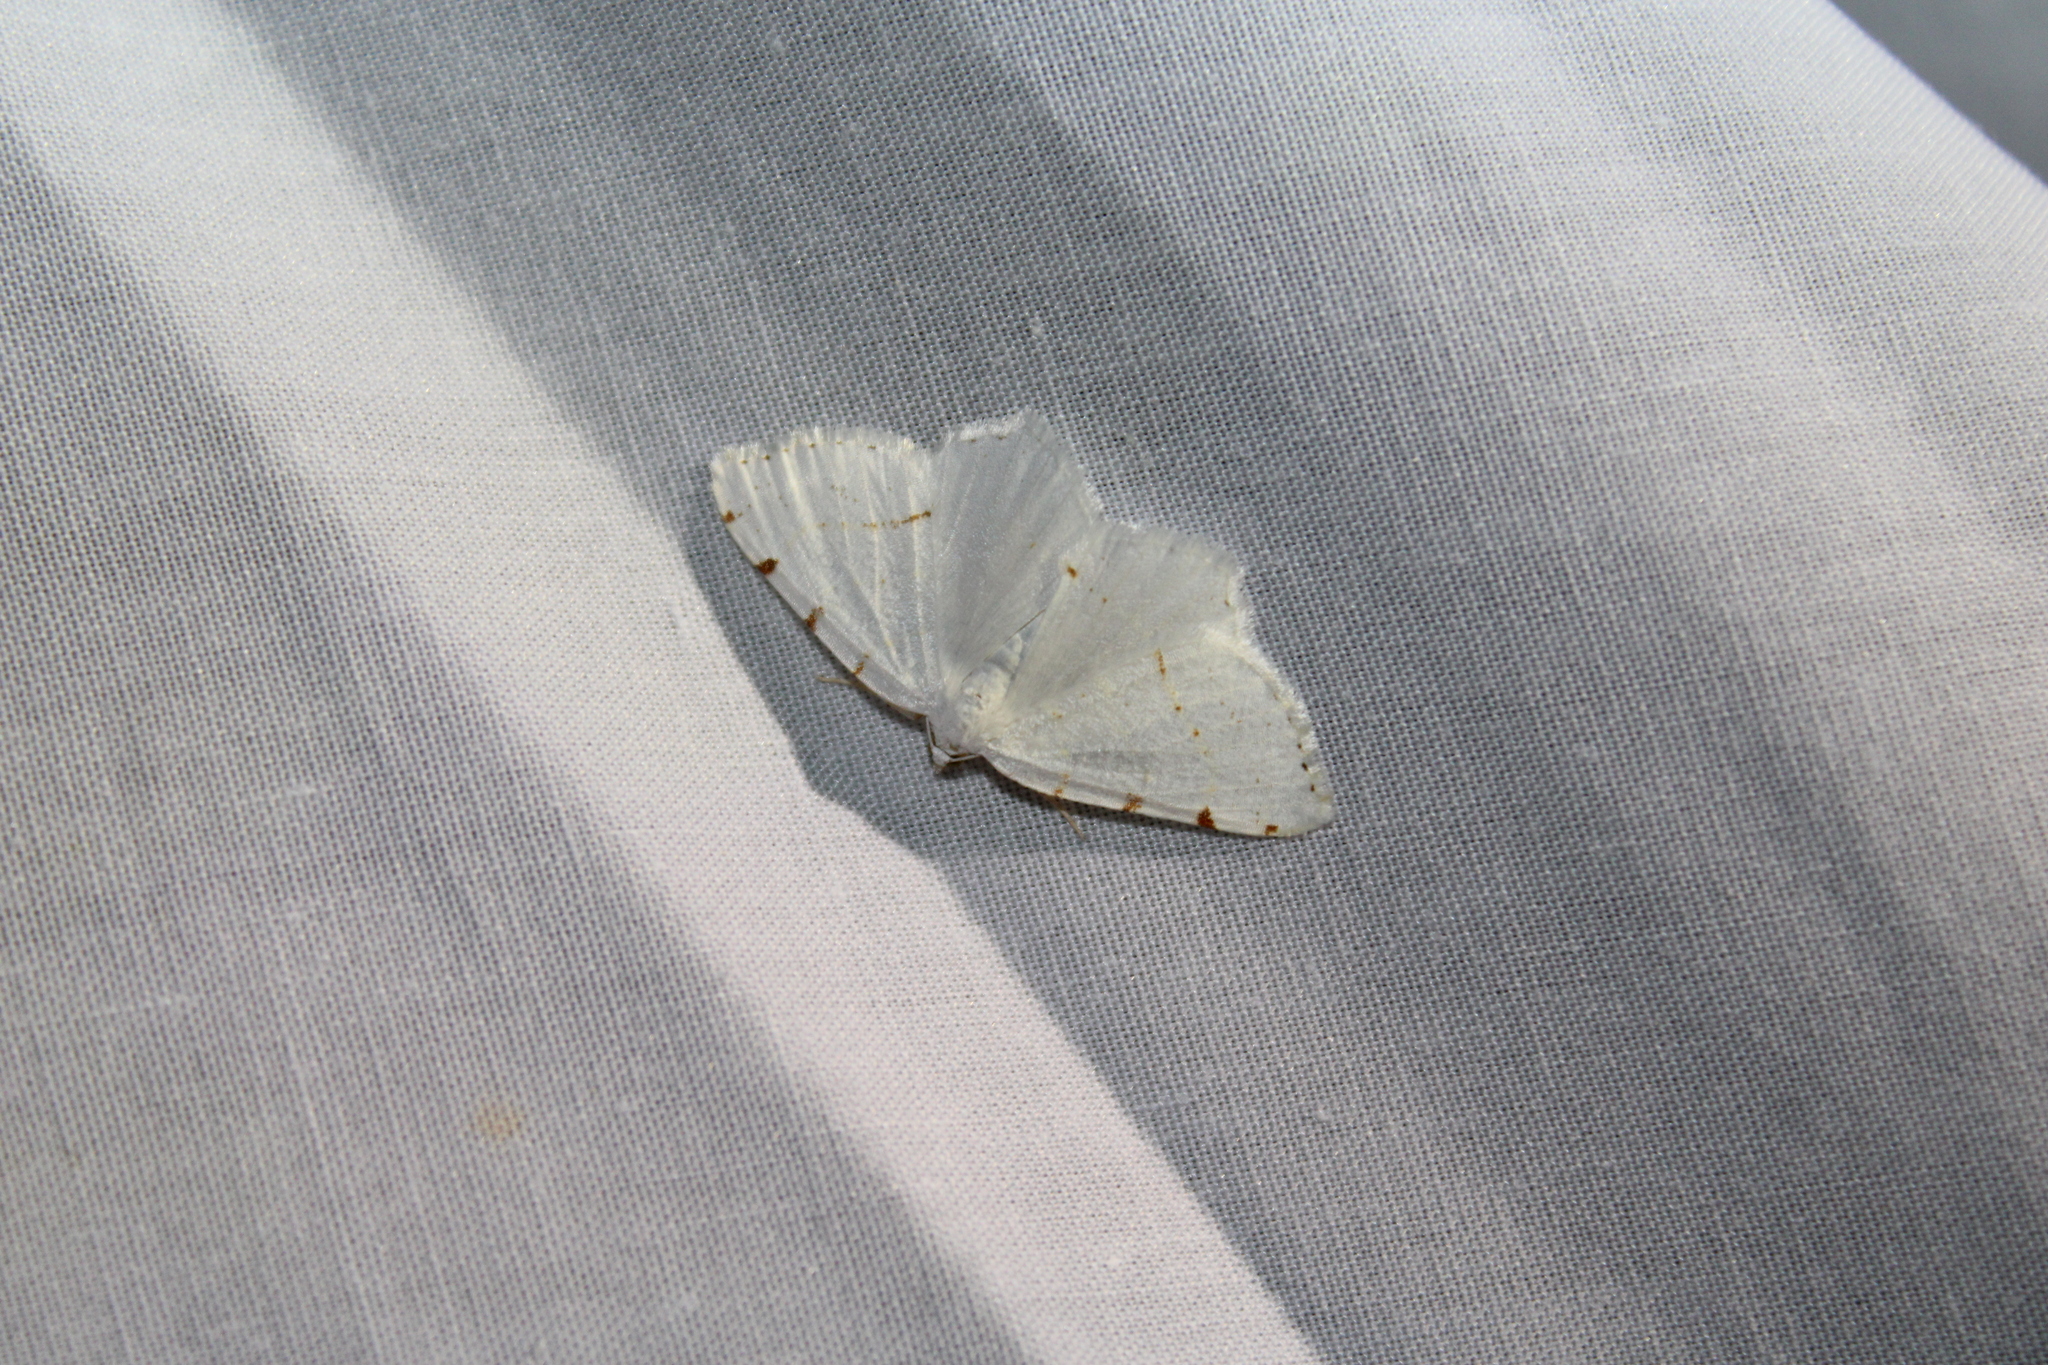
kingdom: Animalia
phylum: Arthropoda
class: Insecta
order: Lepidoptera
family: Geometridae
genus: Macaria
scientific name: Macaria pustularia
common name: Lesser maple spanworm moth
